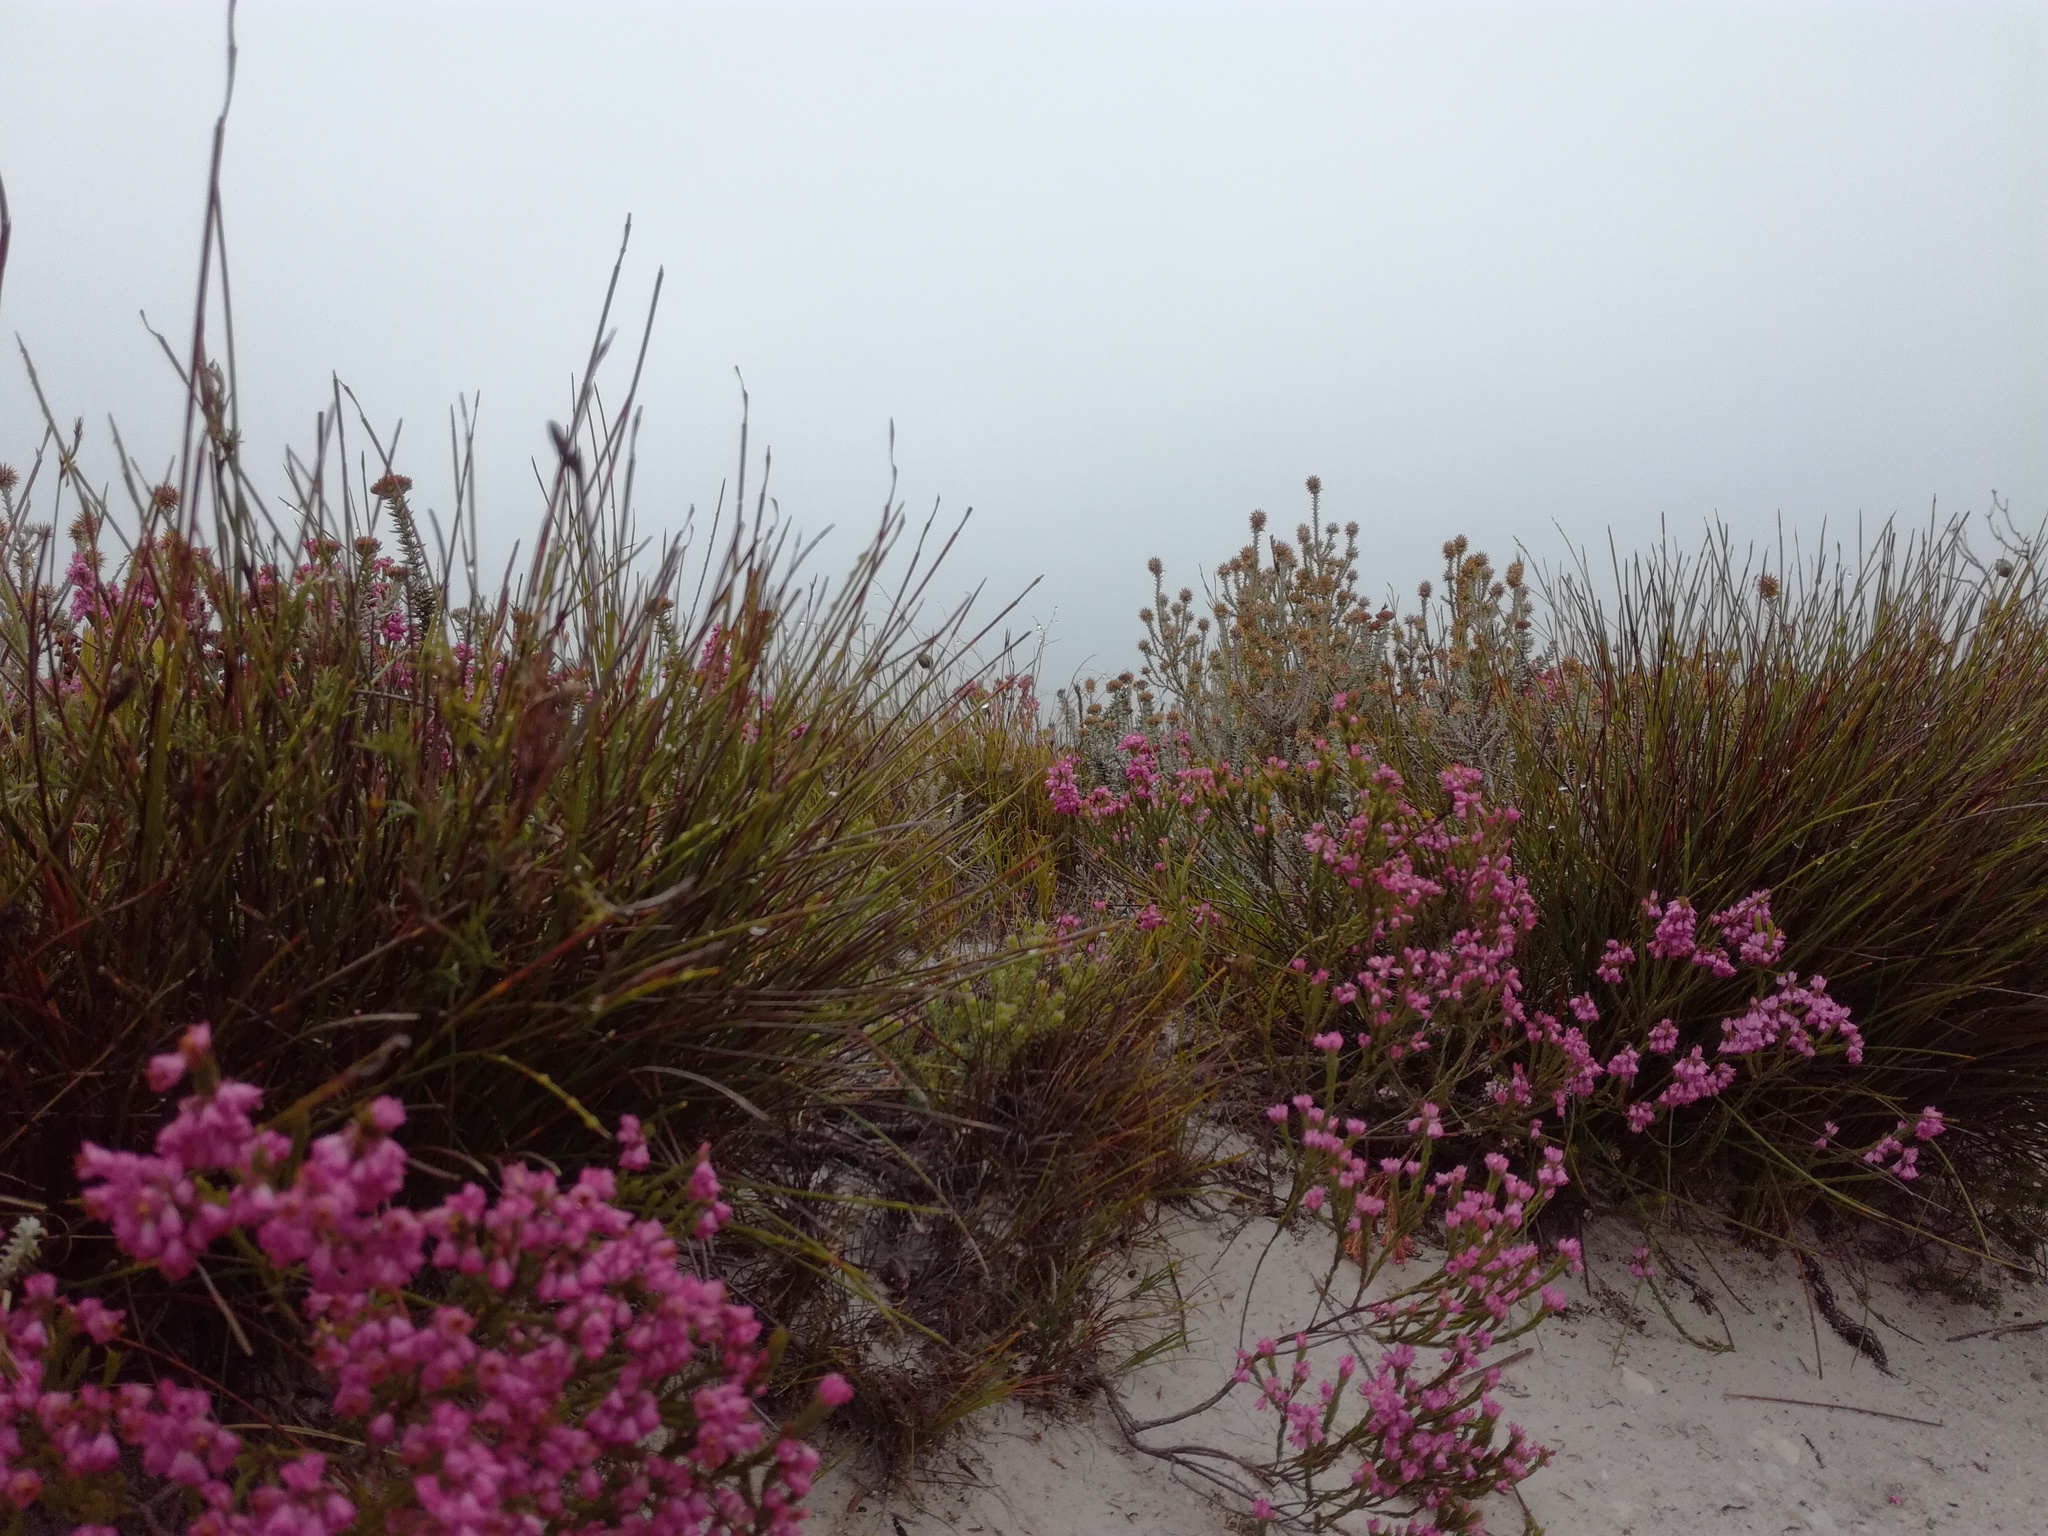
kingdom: Plantae
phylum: Tracheophyta
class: Magnoliopsida
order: Ericales
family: Ericaceae
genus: Erica
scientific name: Erica corifolia
